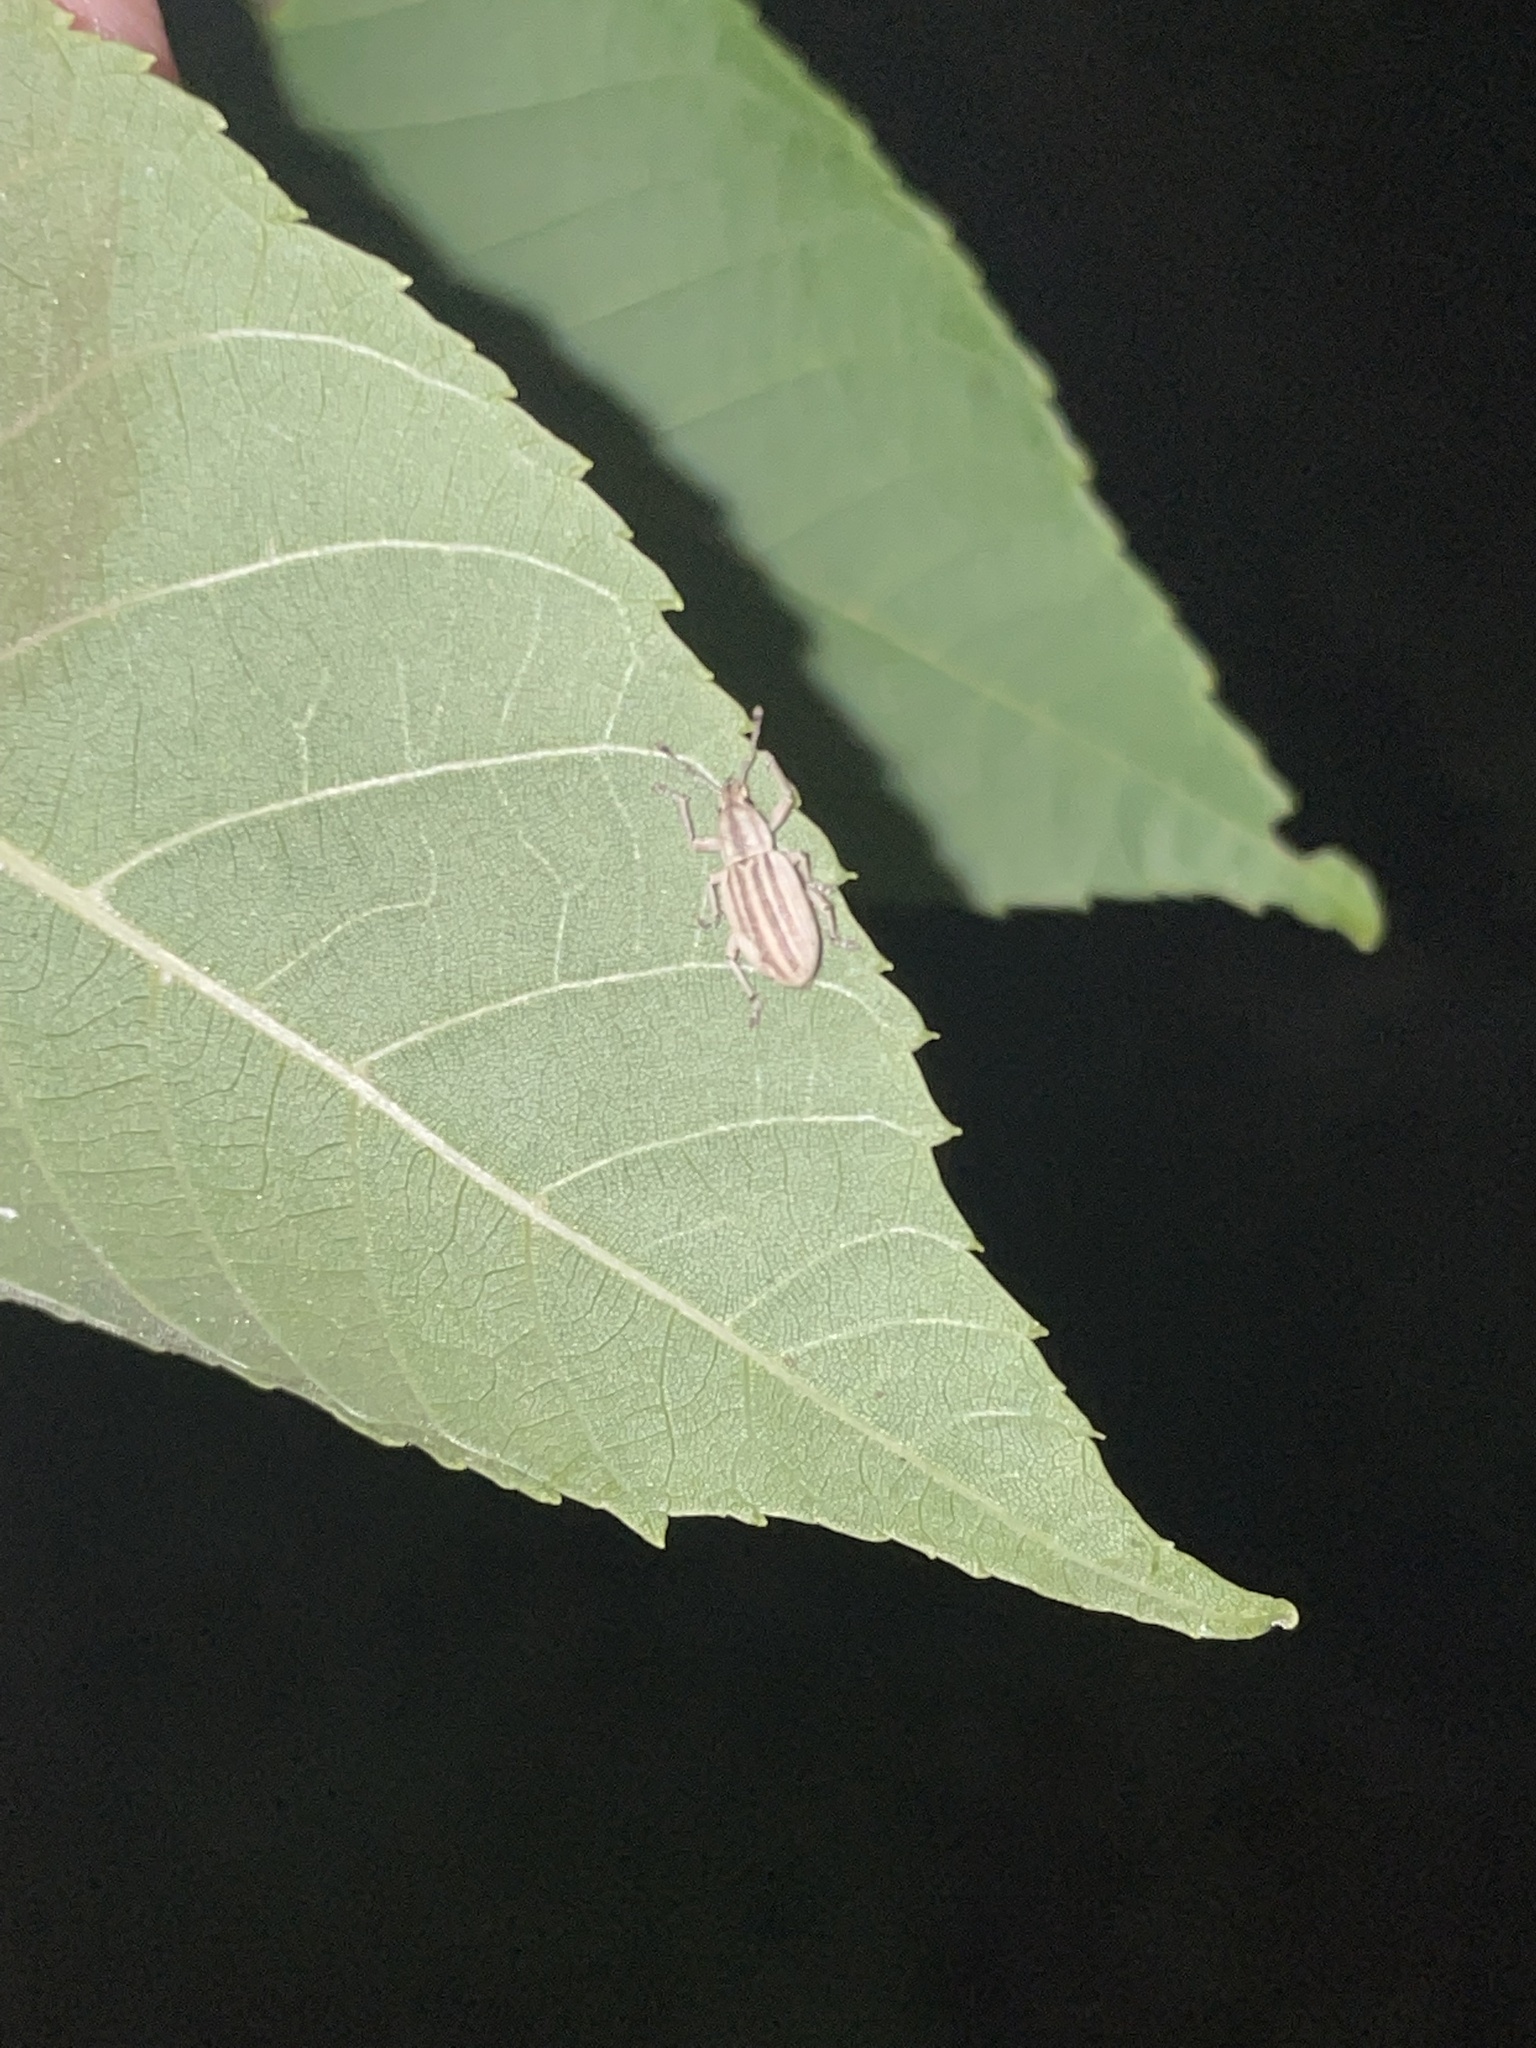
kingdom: Animalia
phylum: Arthropoda
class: Insecta
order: Coleoptera
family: Curculionidae
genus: Aphrastus
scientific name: Aphrastus taeniatus
